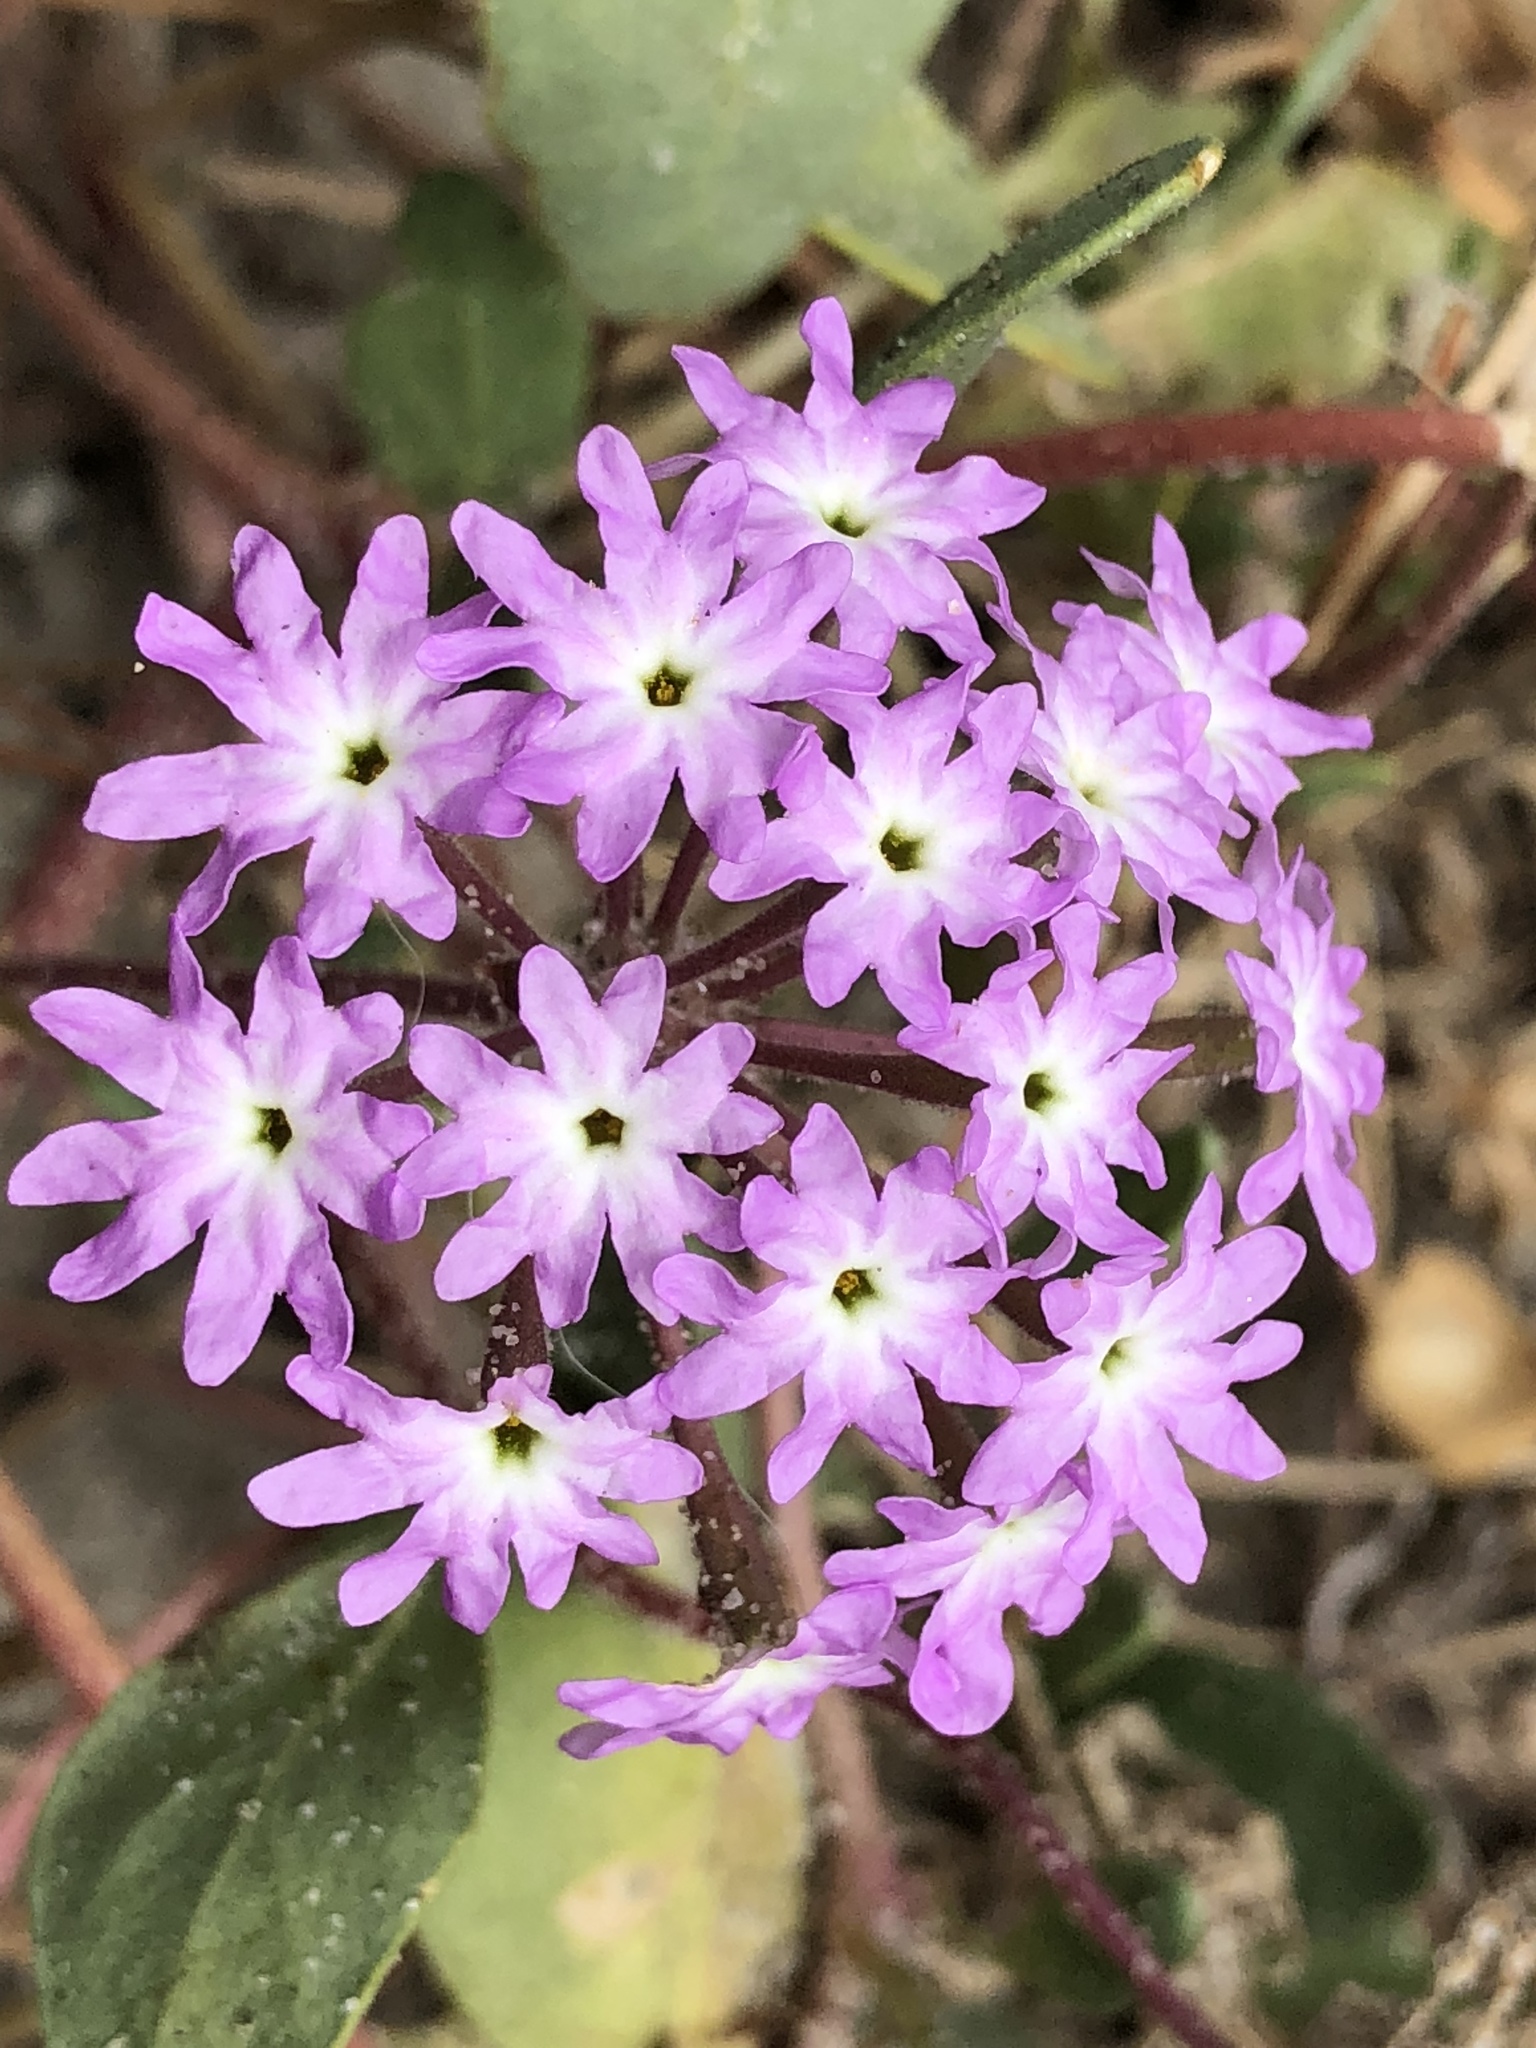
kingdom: Plantae
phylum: Tracheophyta
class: Magnoliopsida
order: Caryophyllales
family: Nyctaginaceae
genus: Abronia
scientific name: Abronia umbellata
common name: Sand-verbena
